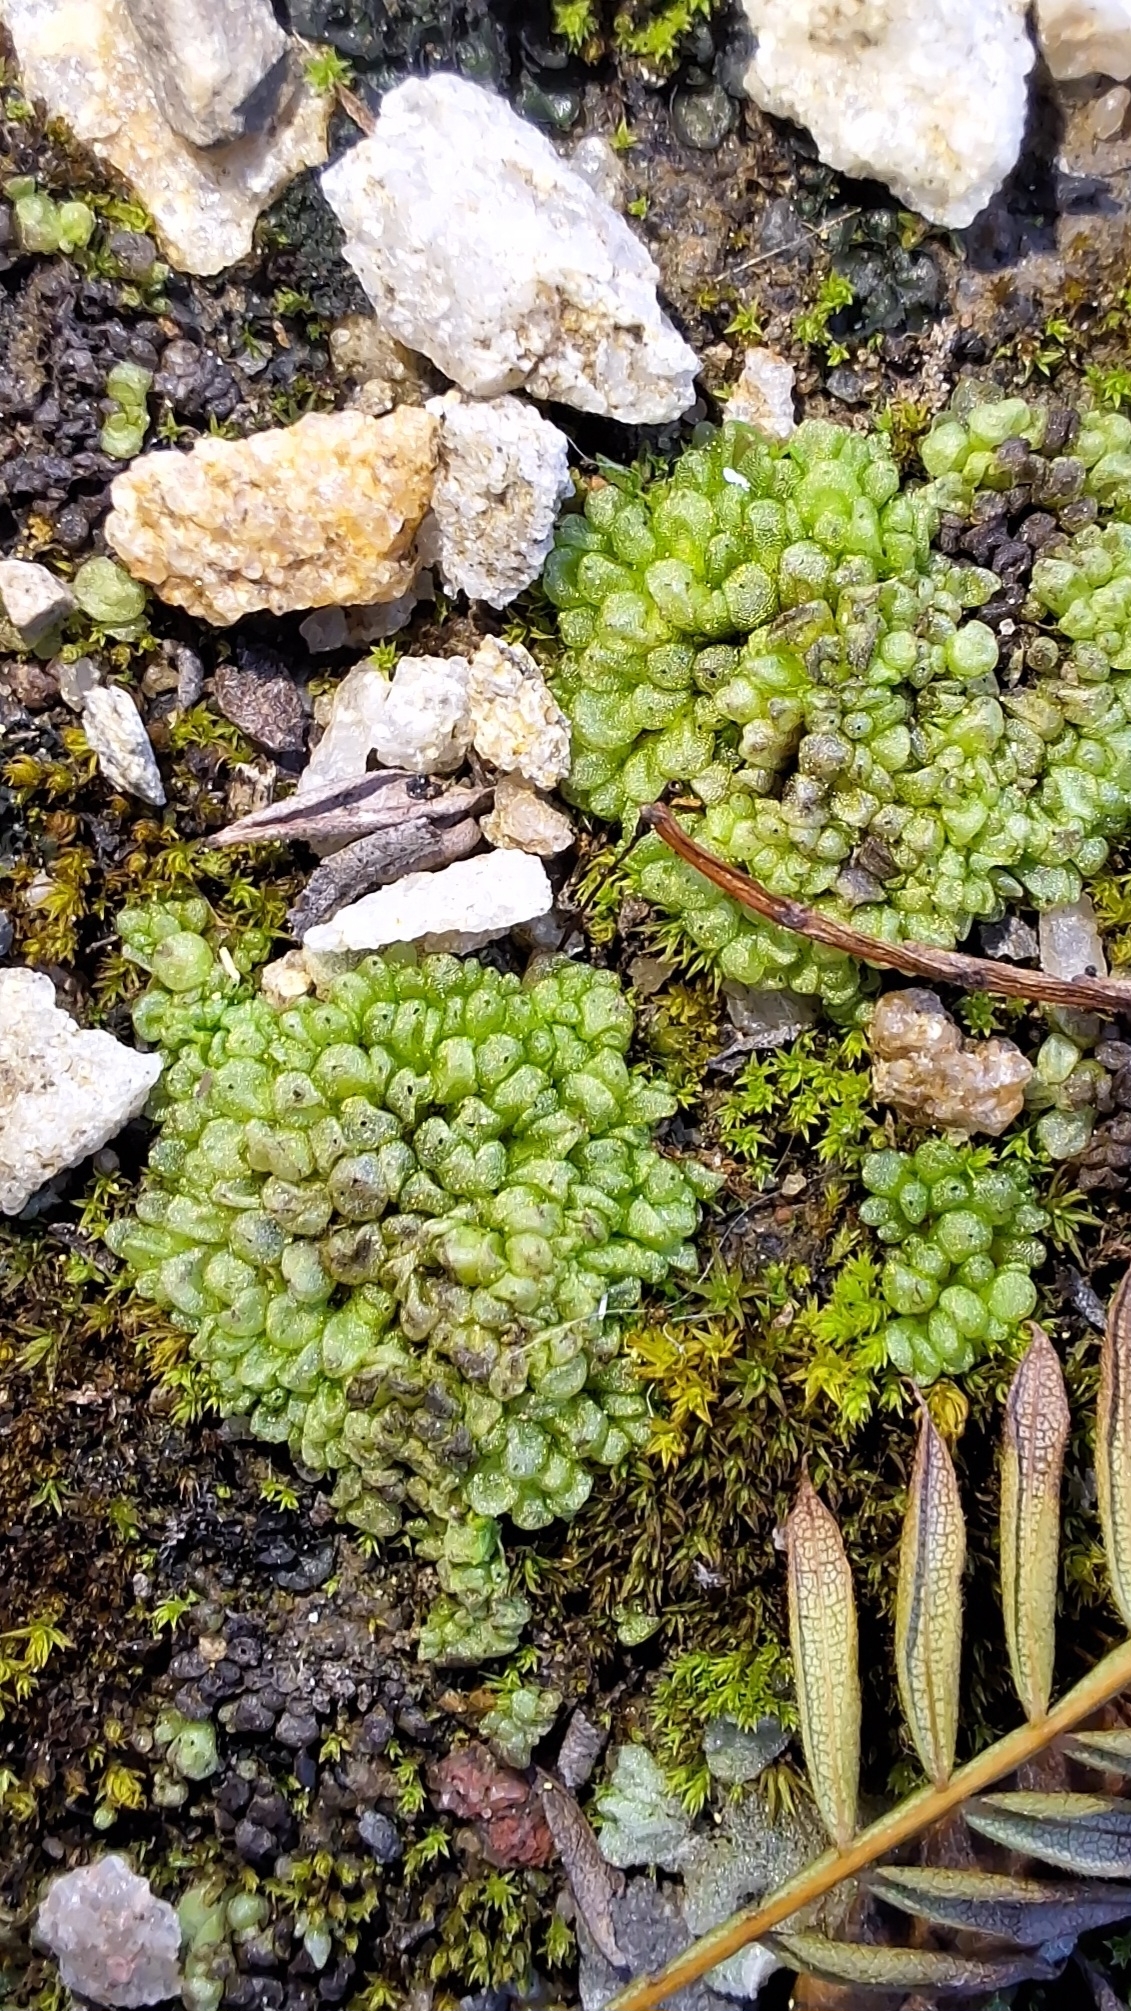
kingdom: Plantae
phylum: Marchantiophyta
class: Marchantiopsida
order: Sphaerocarpales
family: Sphaerocarpaceae
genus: Sphaerocarpos
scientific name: Sphaerocarpos texanus
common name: Texas balloonwort
